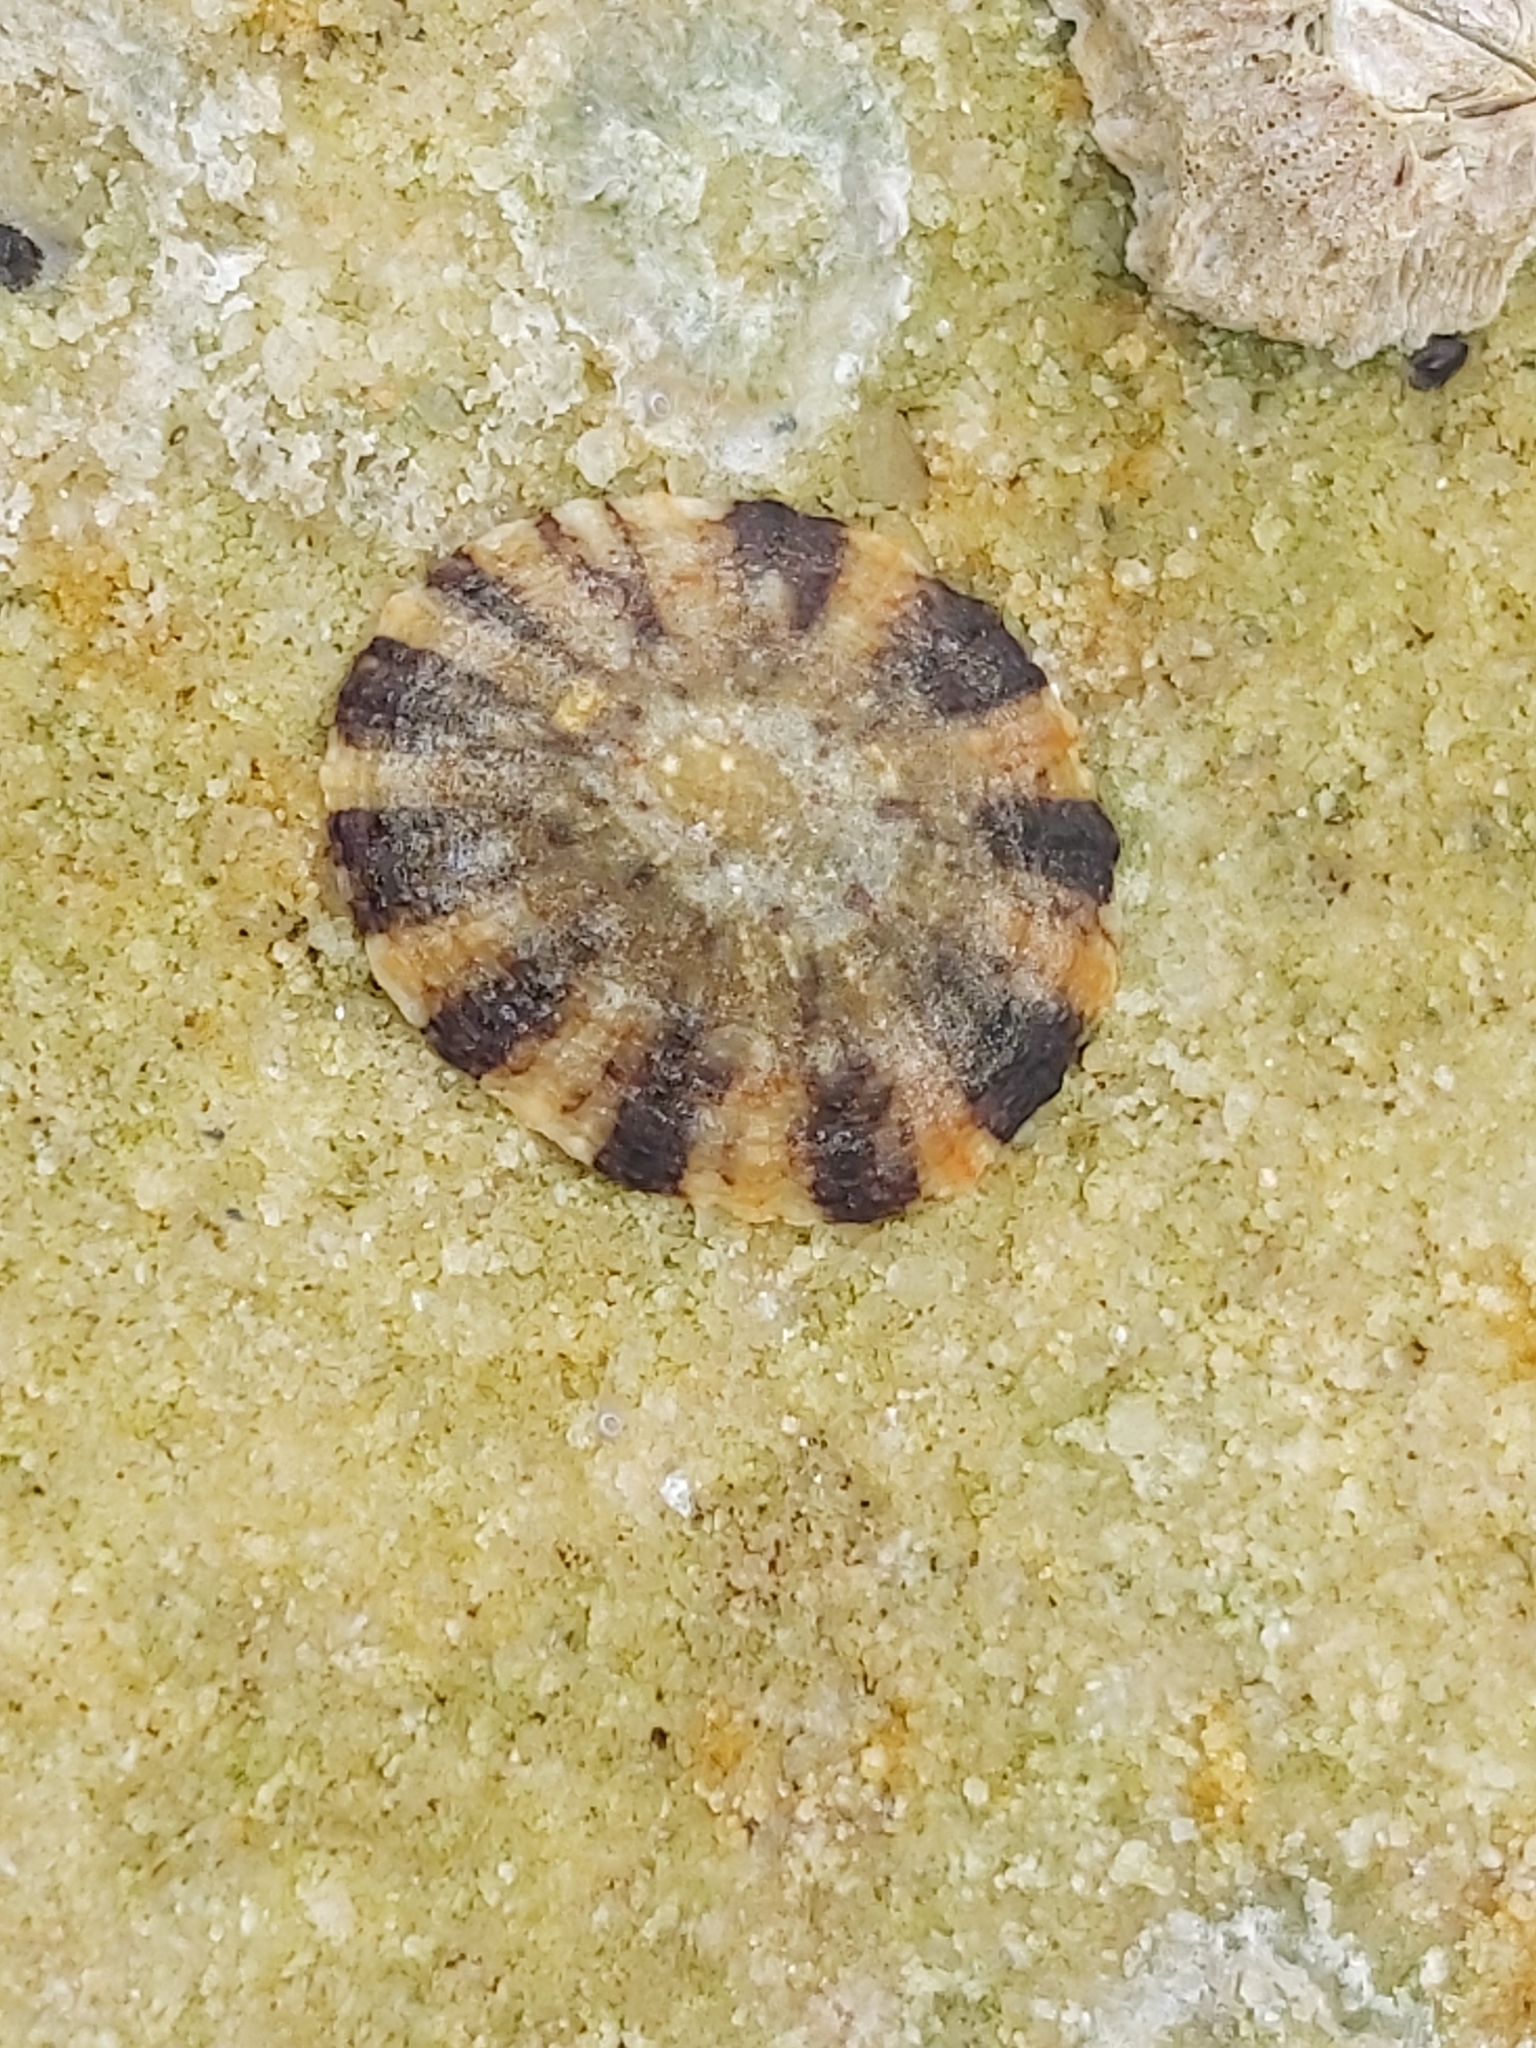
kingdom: Animalia
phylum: Mollusca
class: Gastropoda
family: Nacellidae
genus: Cellana
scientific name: Cellana tramoserica
